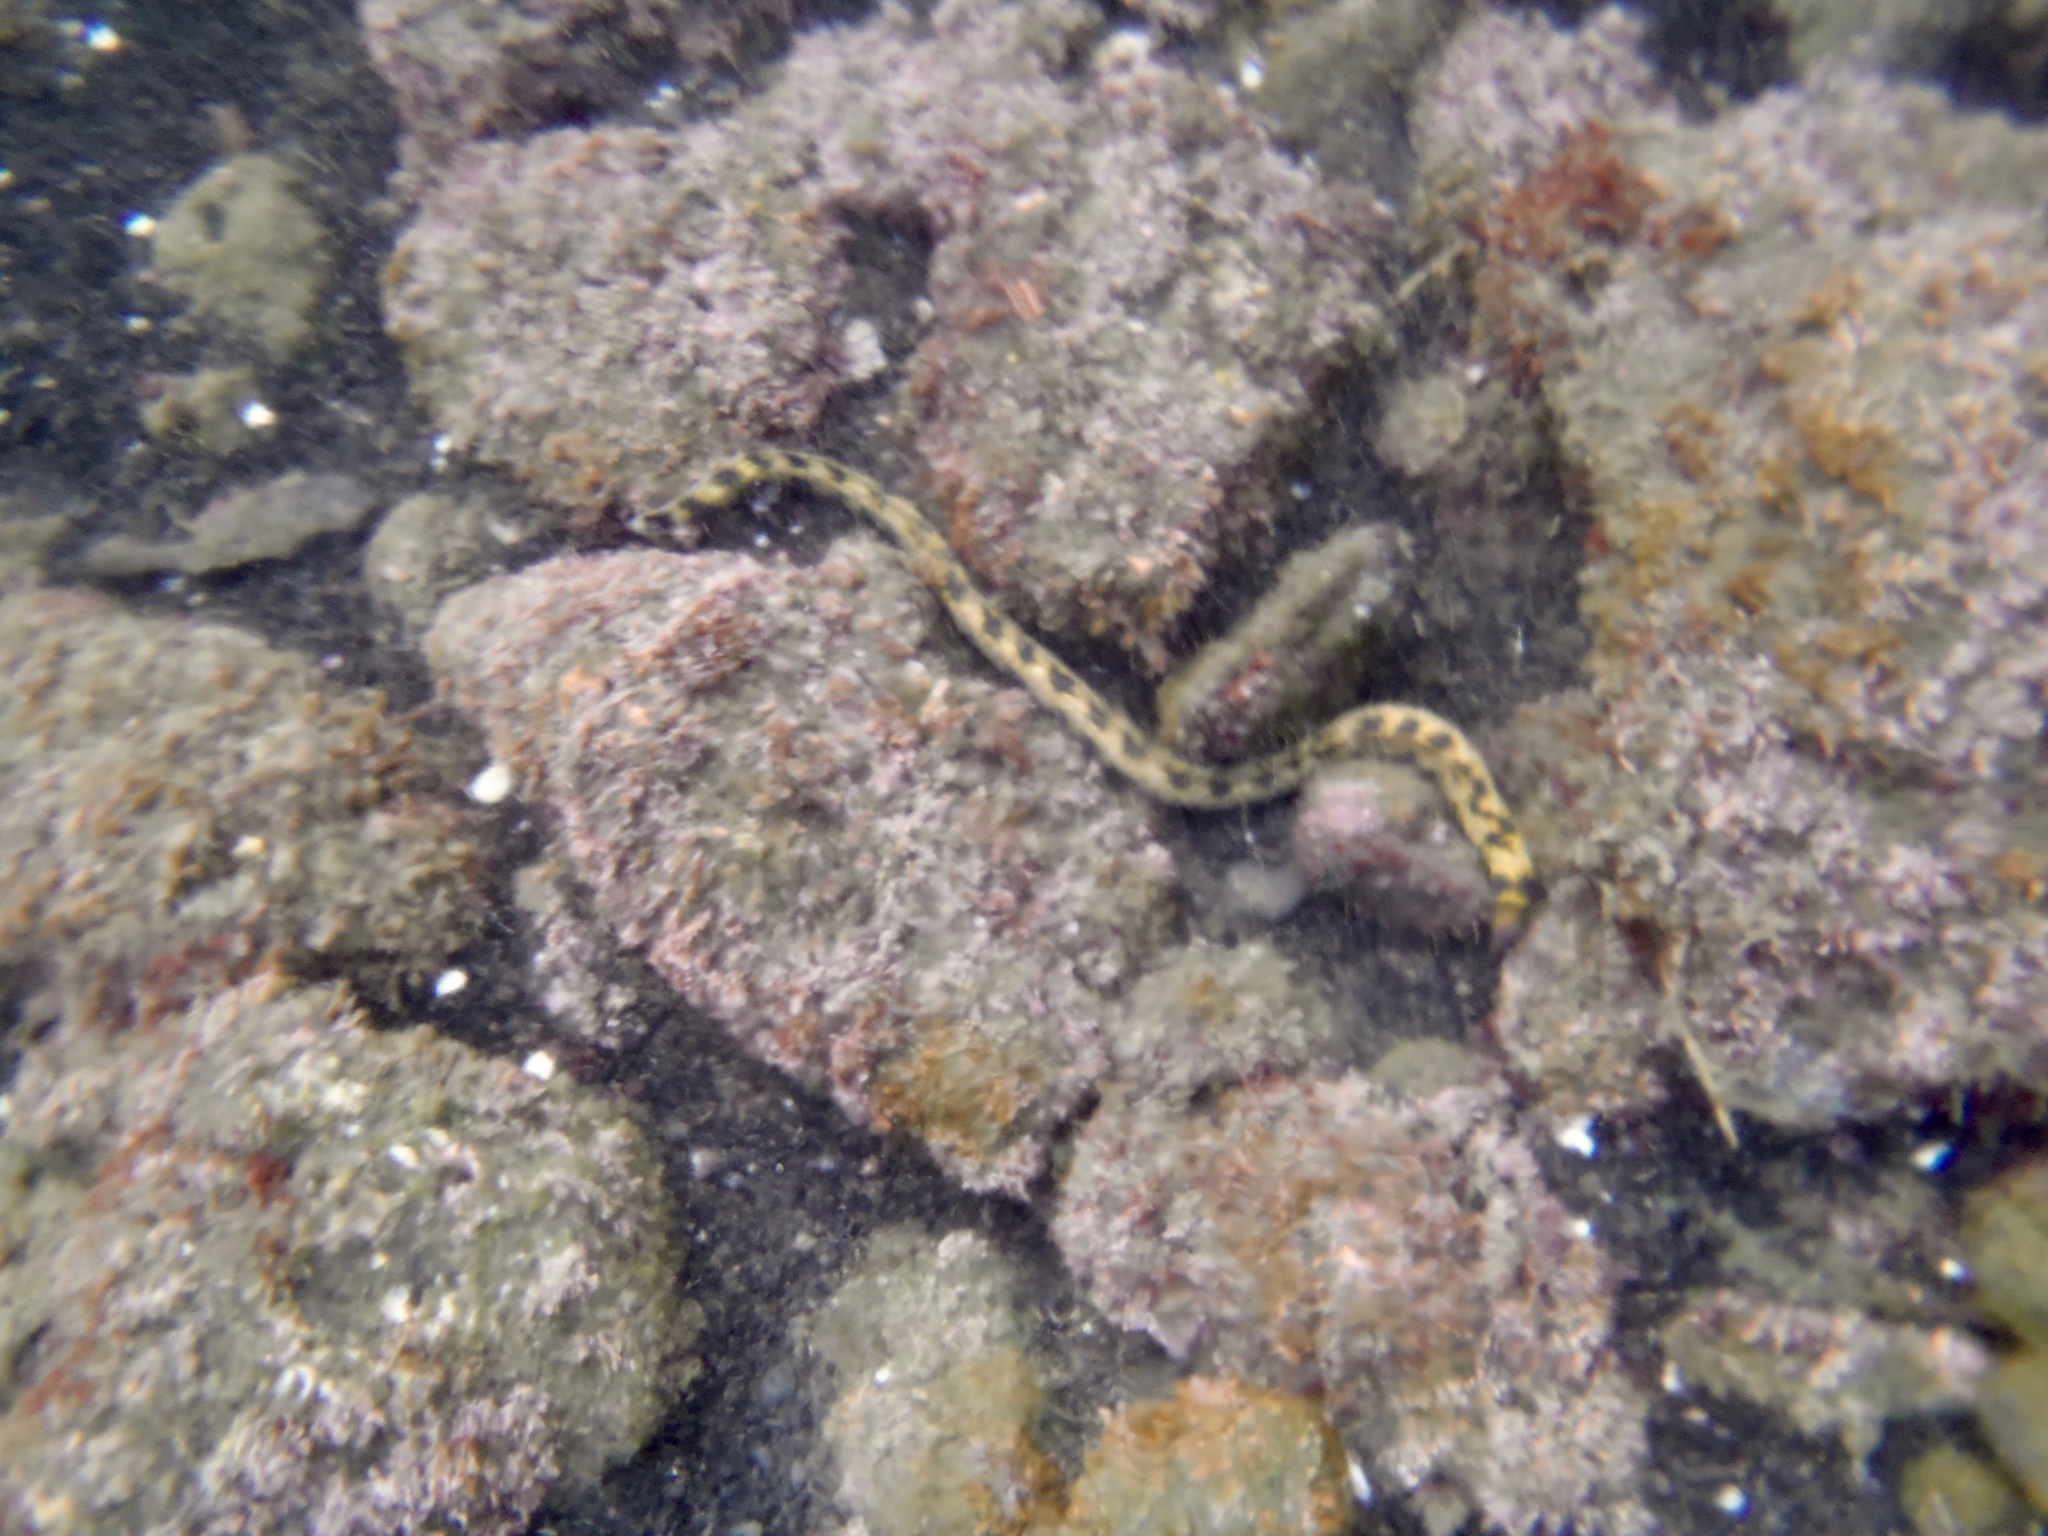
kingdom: Animalia
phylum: Chordata
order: Anguilliformes
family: Ophichthidae
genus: Myrichthys
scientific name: Myrichthys magnificus
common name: Hawaiian spotted snake eel
